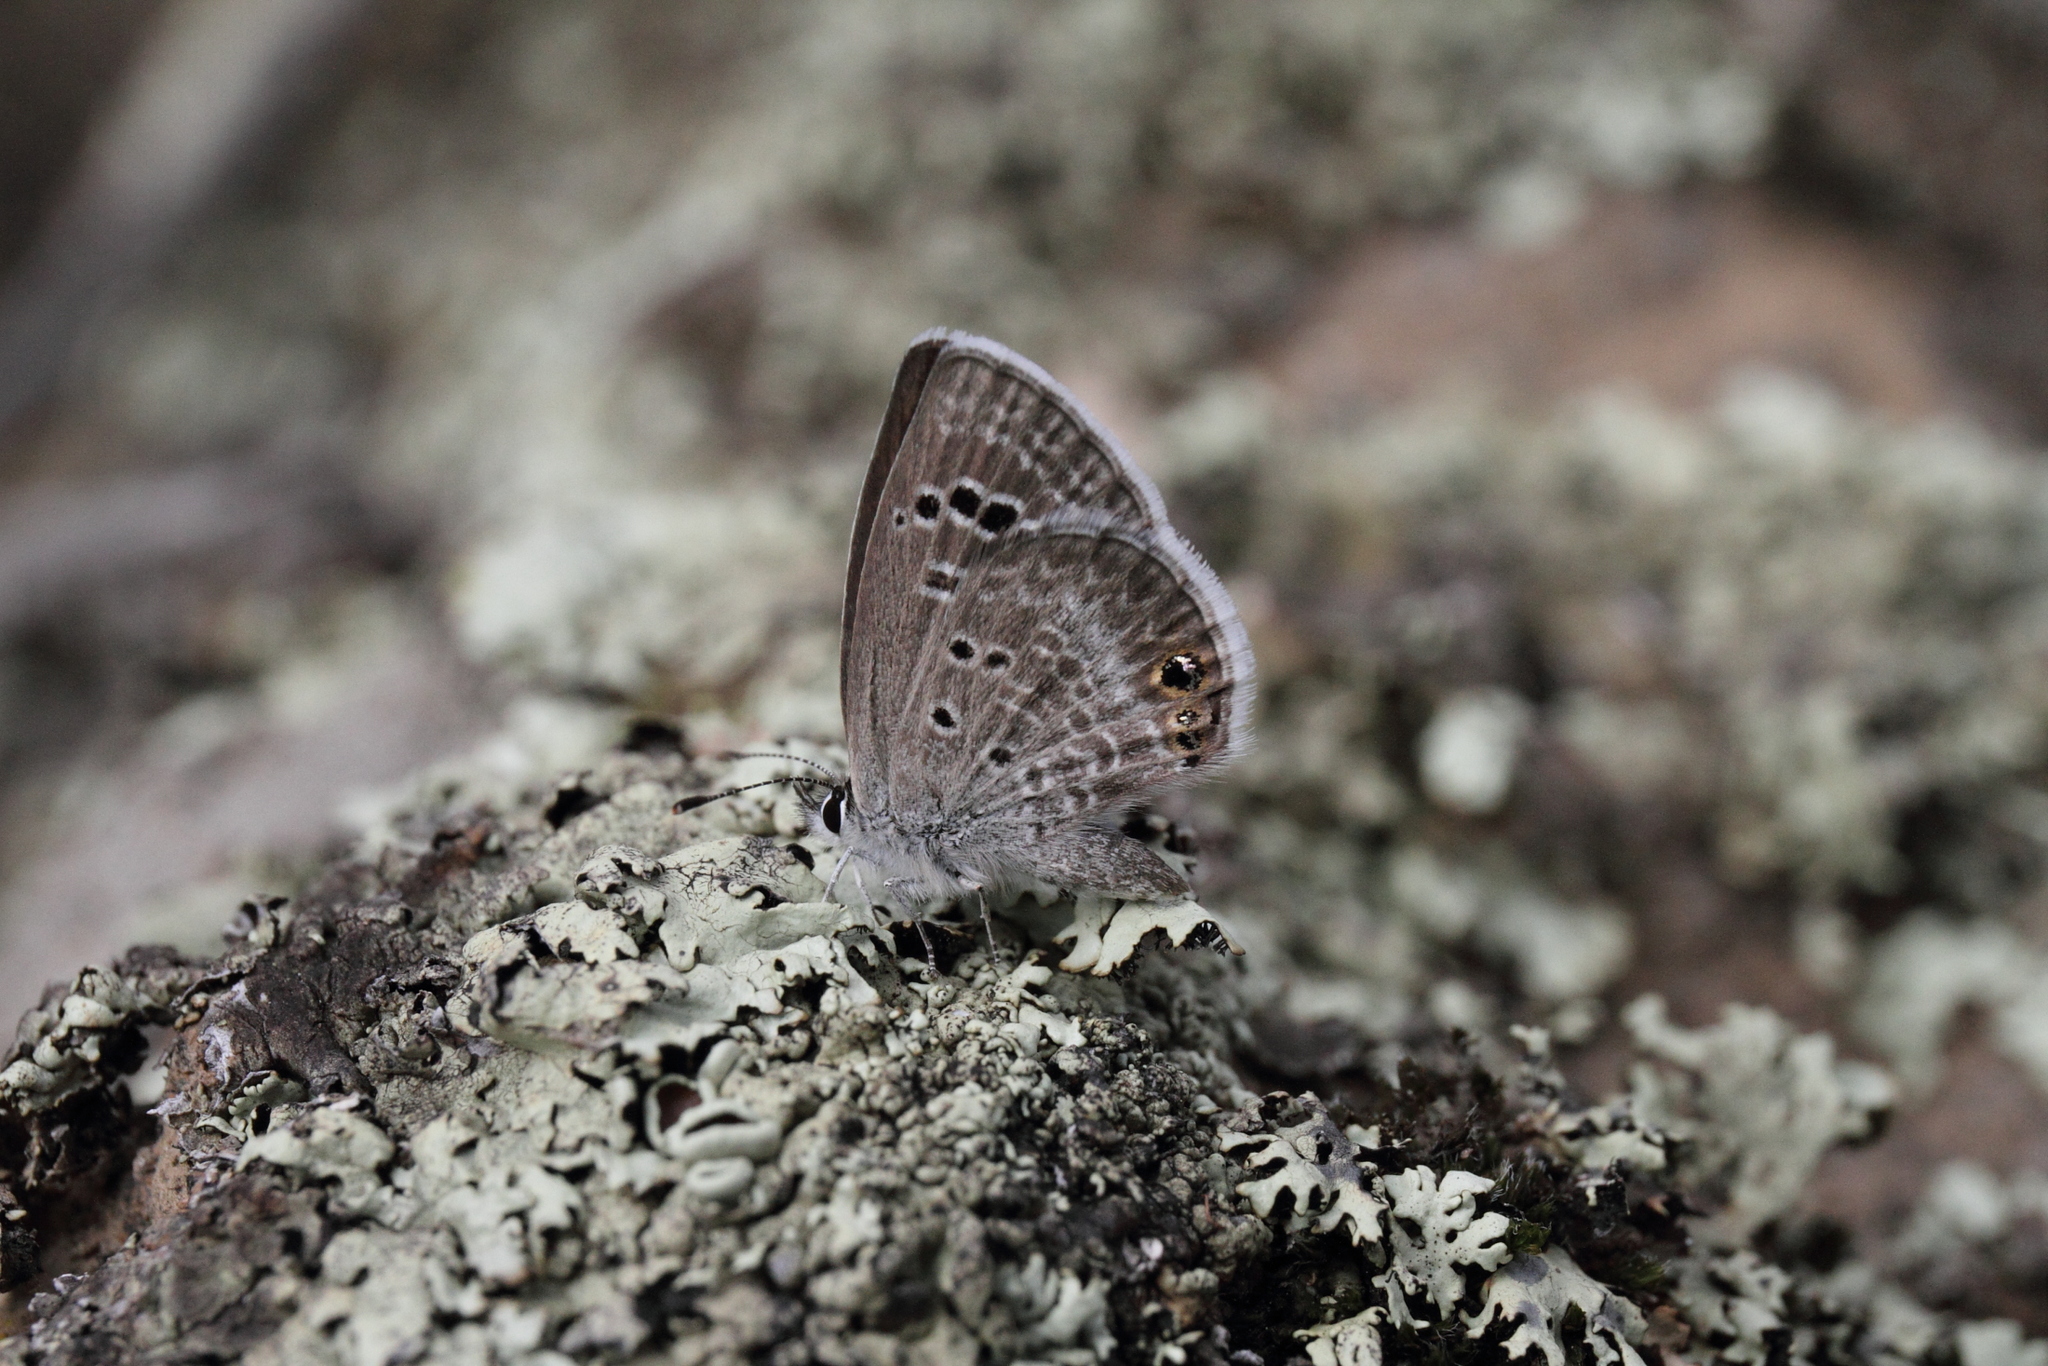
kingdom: Animalia
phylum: Arthropoda
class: Insecta
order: Lepidoptera
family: Lycaenidae
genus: Echinargus
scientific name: Echinargus isola
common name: Reakirt's blue
